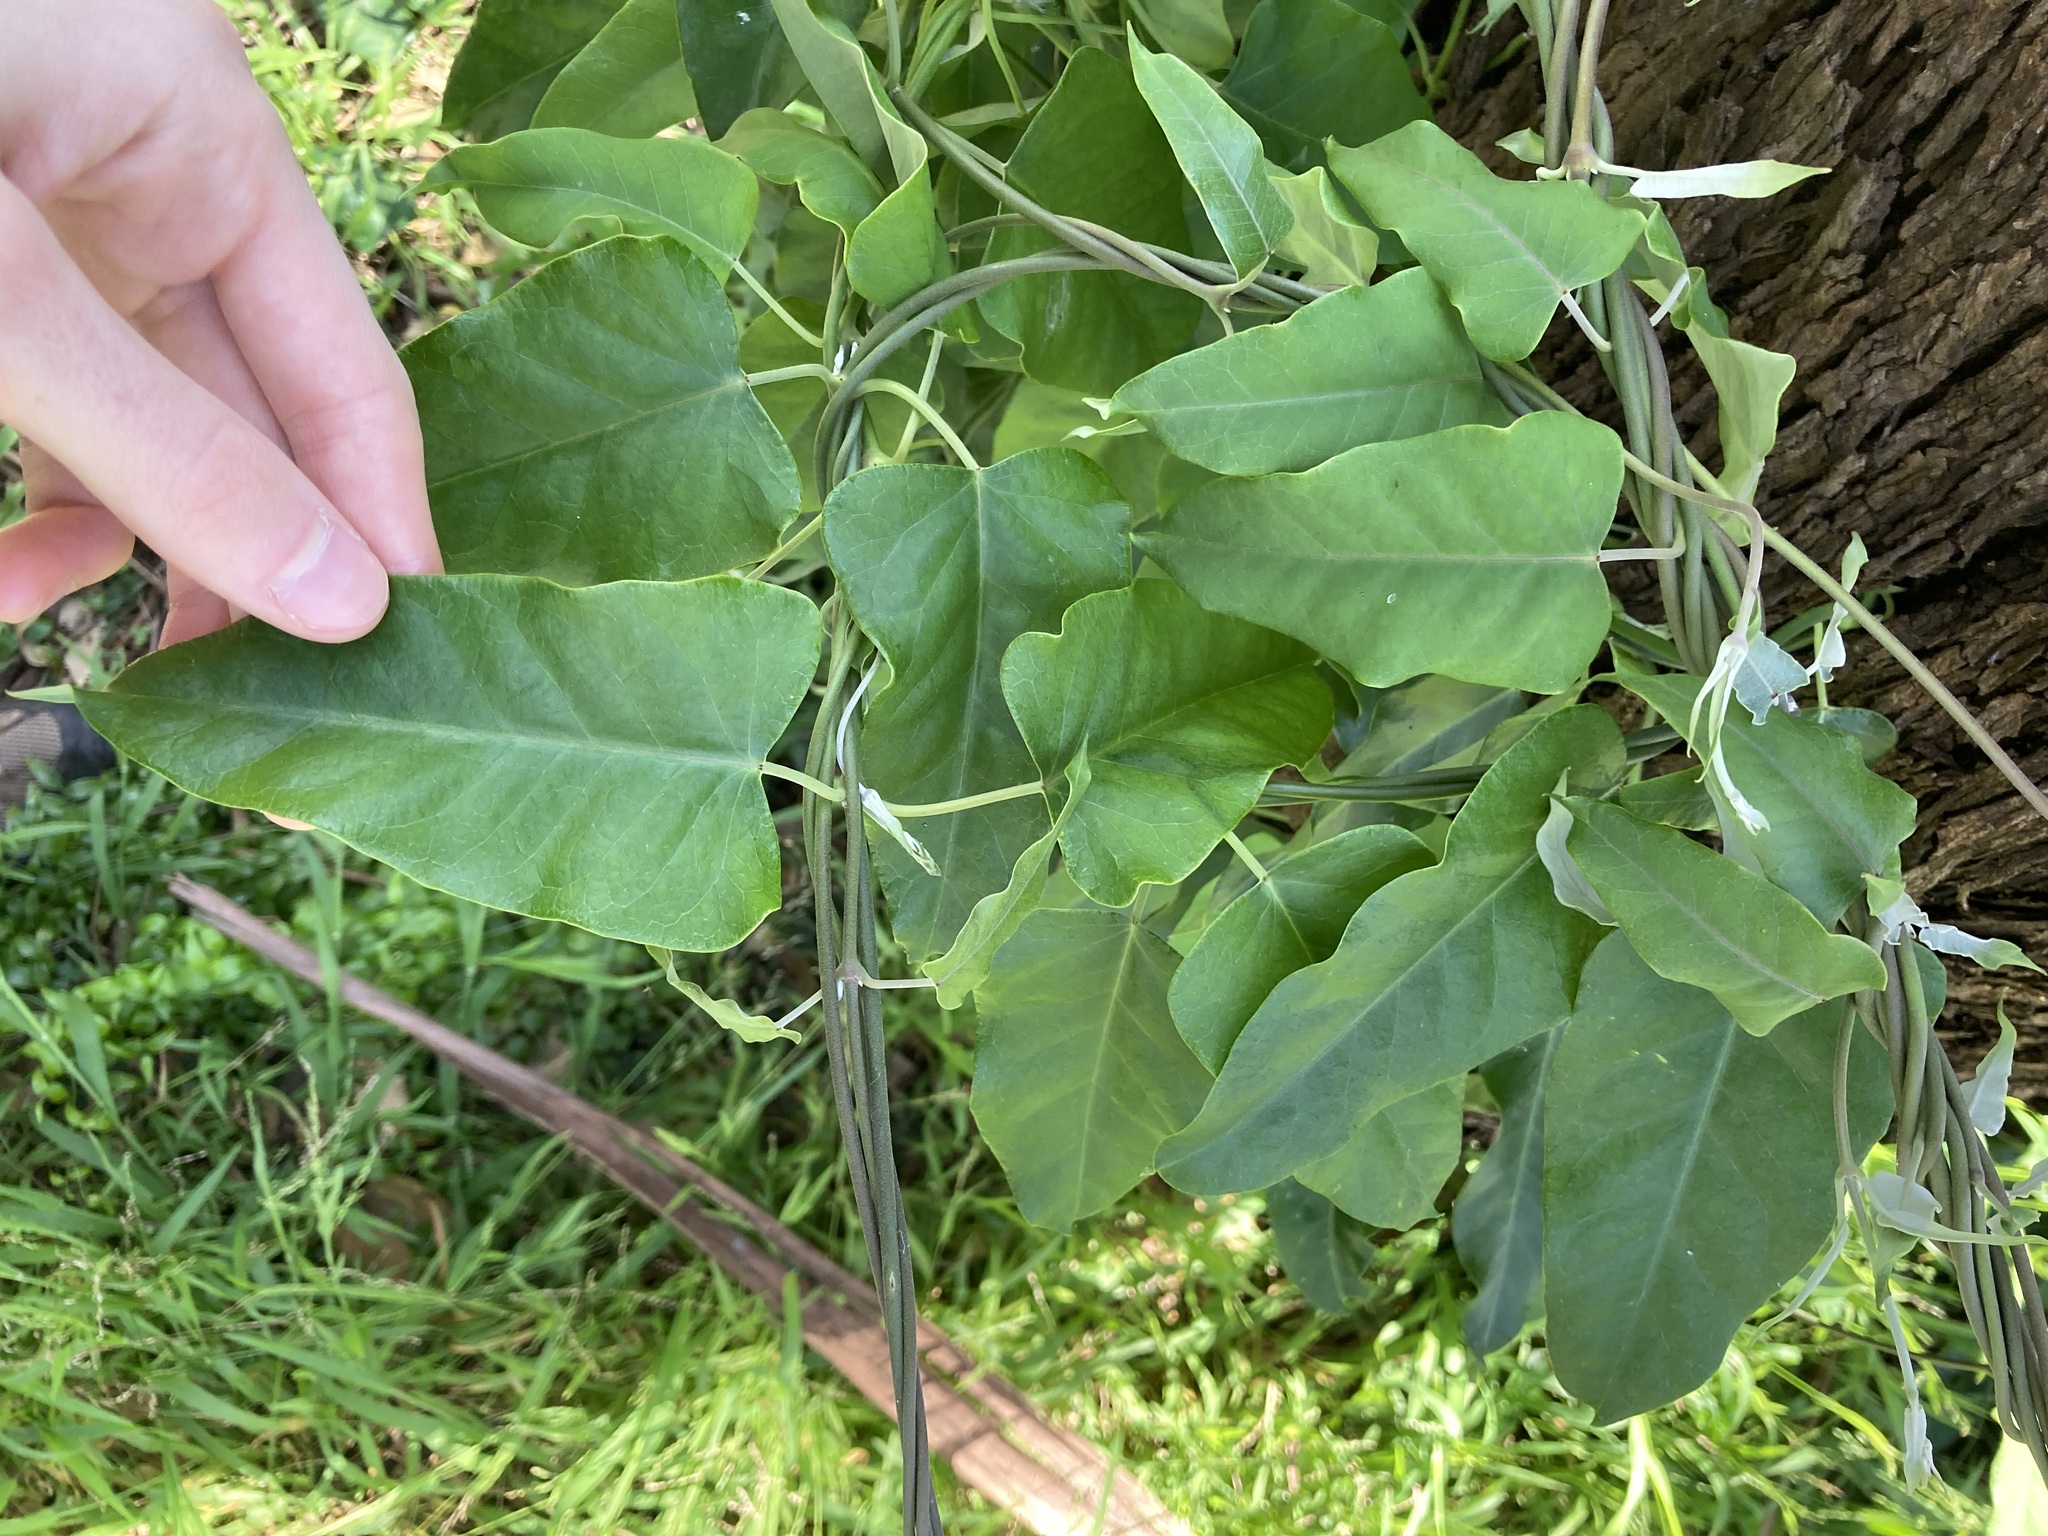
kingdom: Plantae
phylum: Tracheophyta
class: Magnoliopsida
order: Gentianales
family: Apocynaceae
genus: Araujia
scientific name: Araujia sericifera
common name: White bladderflower
